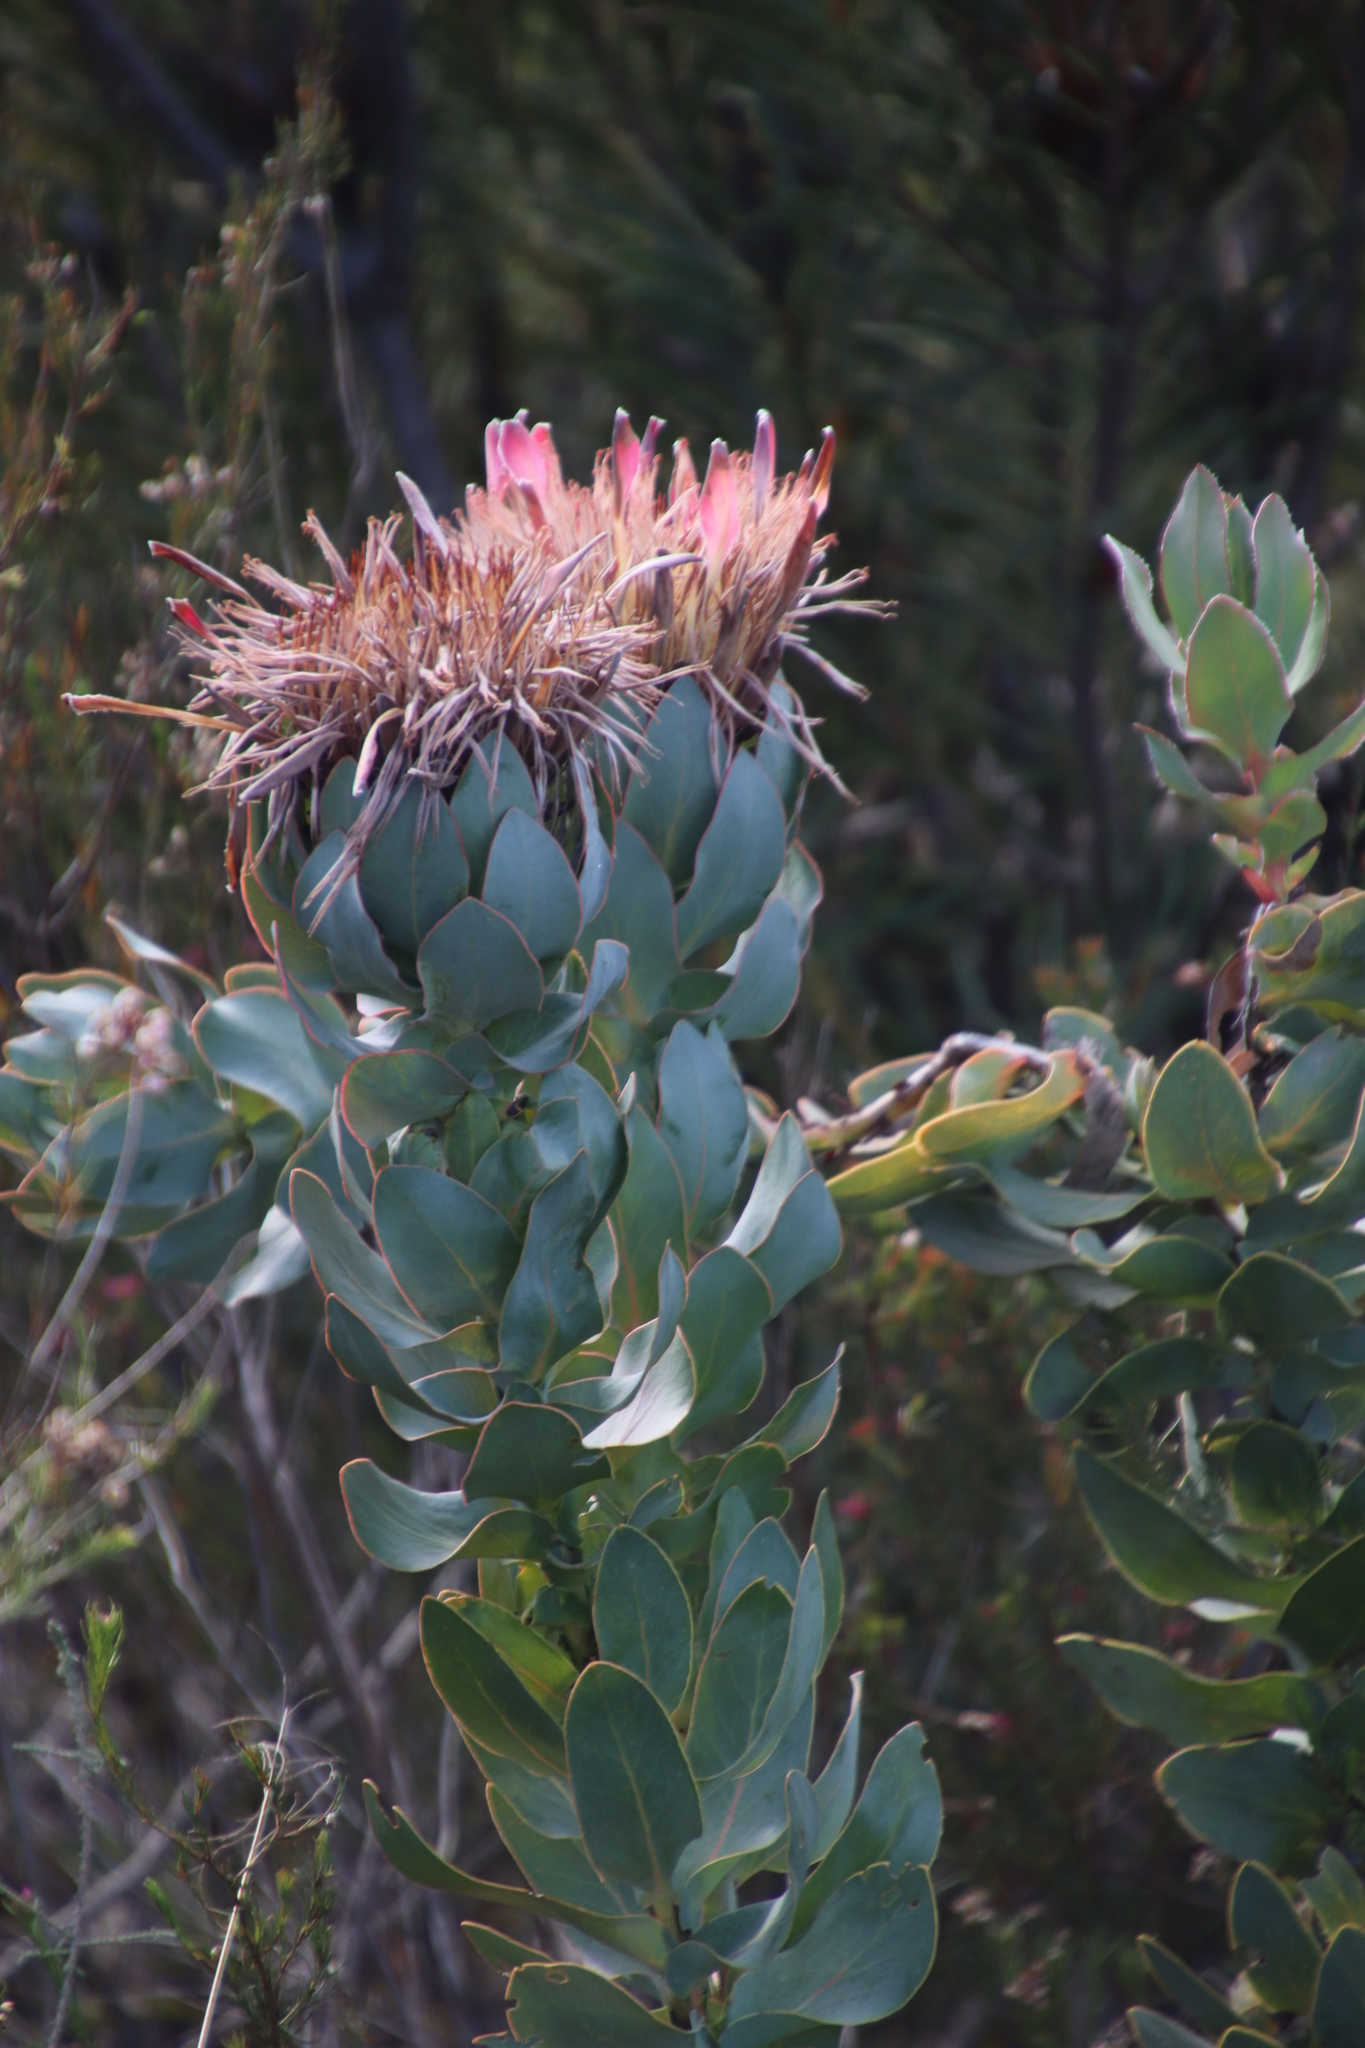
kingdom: Plantae
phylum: Tracheophyta
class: Magnoliopsida
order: Proteales
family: Proteaceae
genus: Protea
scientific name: Protea eximia
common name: Broad-leaved sugarbush
